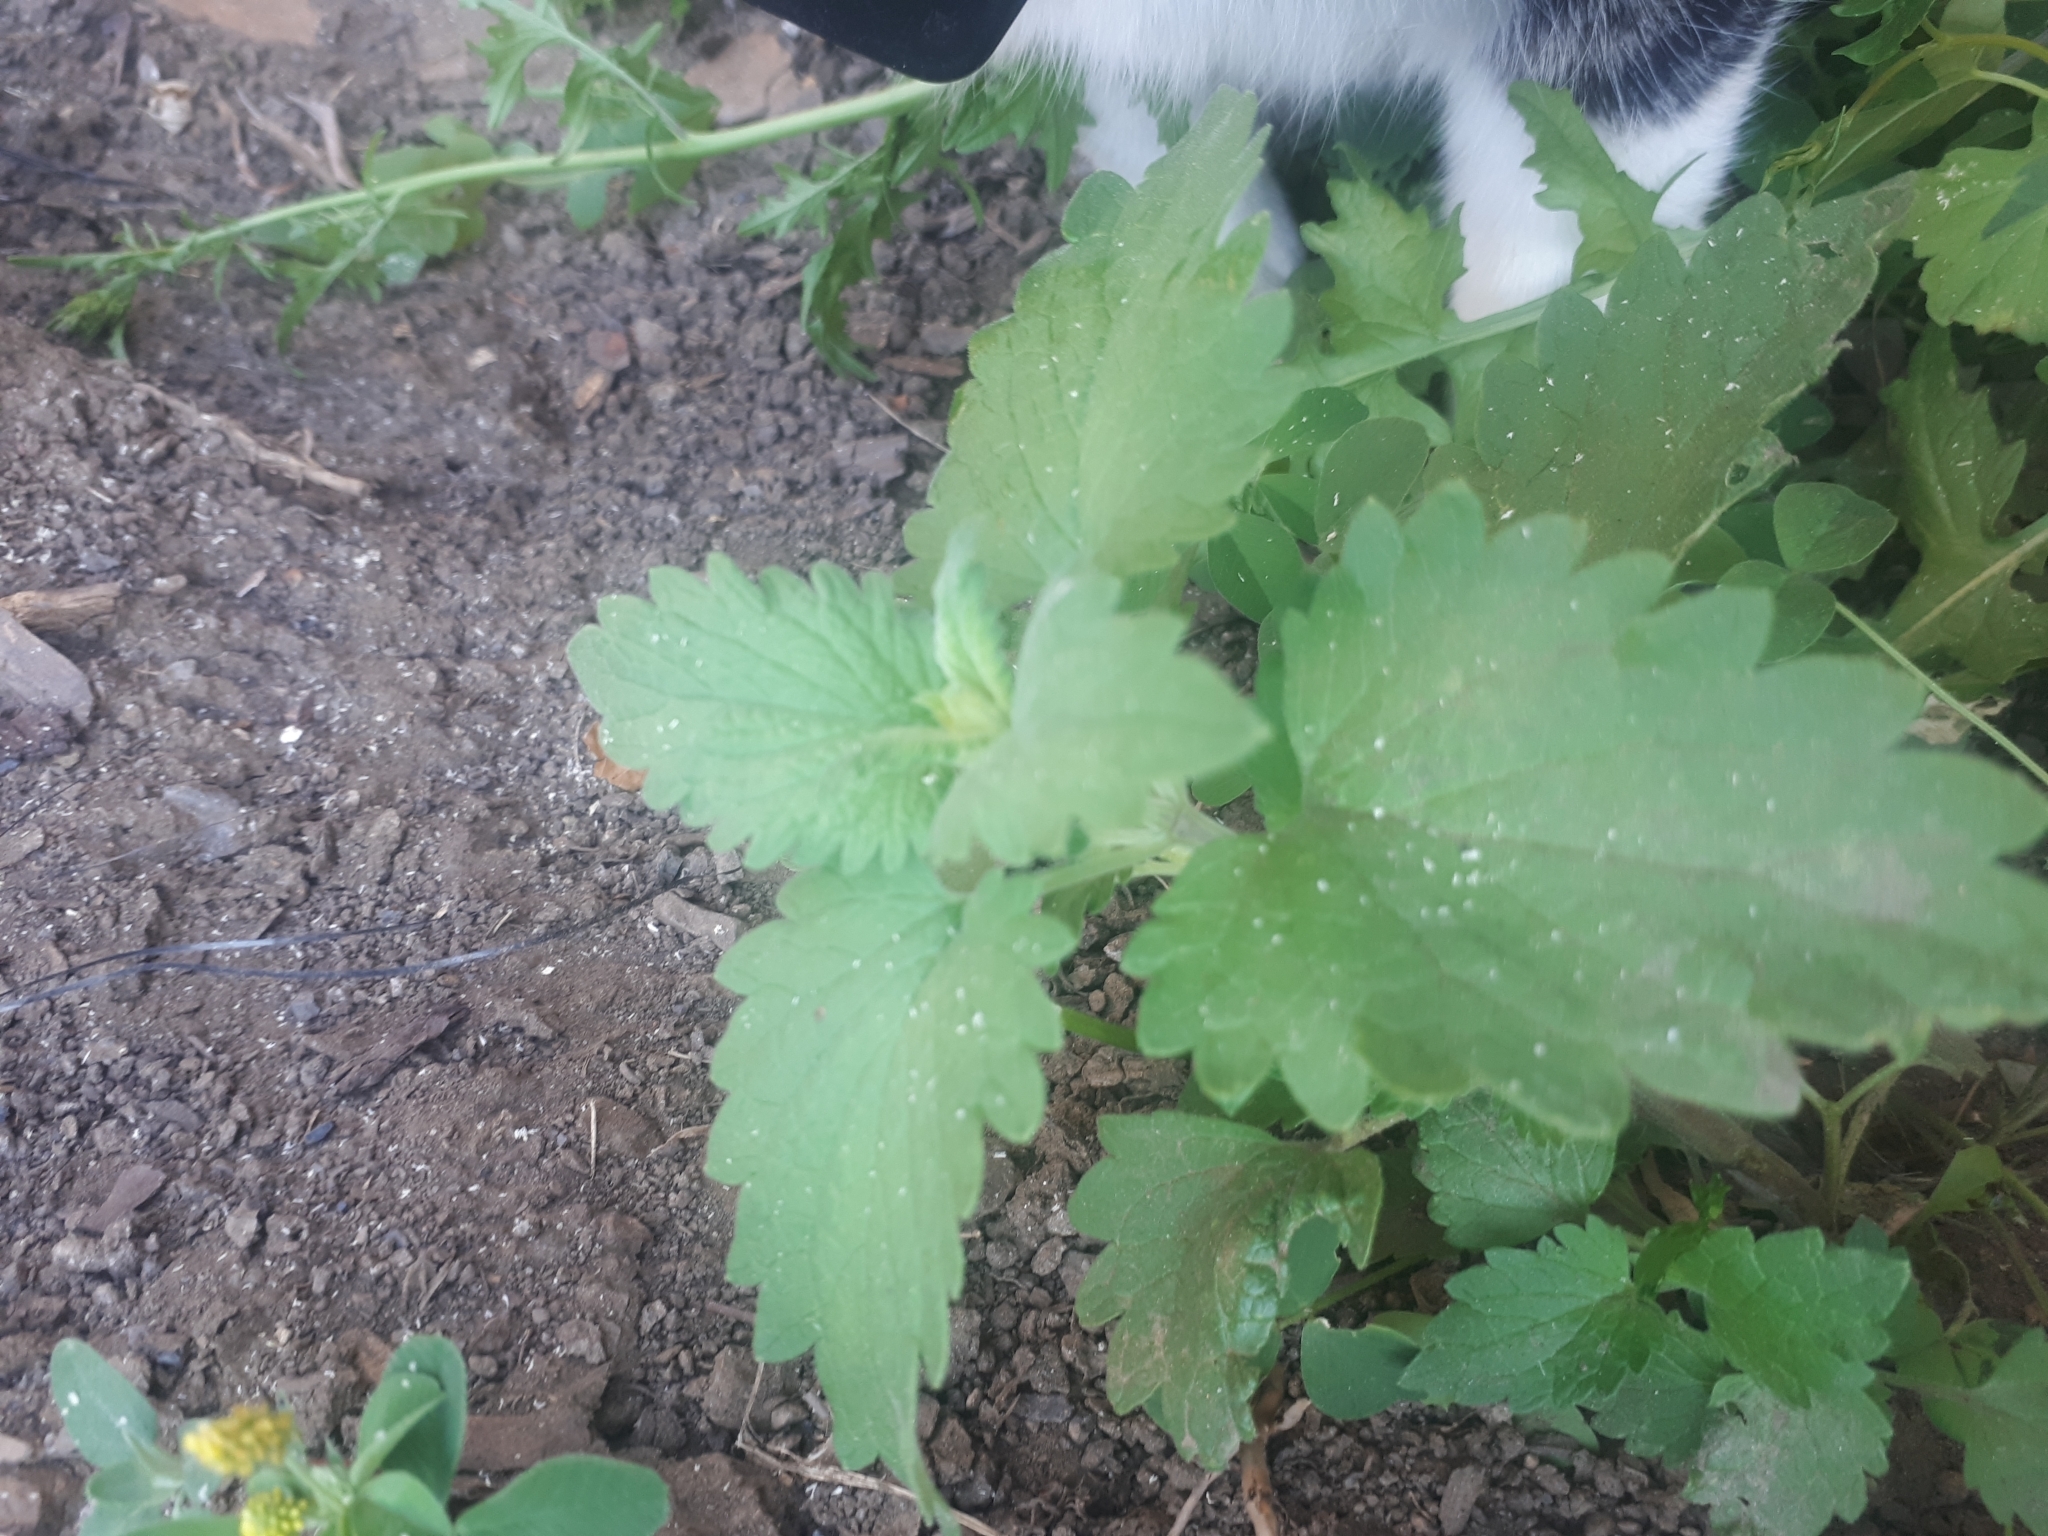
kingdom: Plantae
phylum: Tracheophyta
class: Magnoliopsida
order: Lamiales
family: Lamiaceae
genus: Nepeta
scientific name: Nepeta cataria
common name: Catnip
